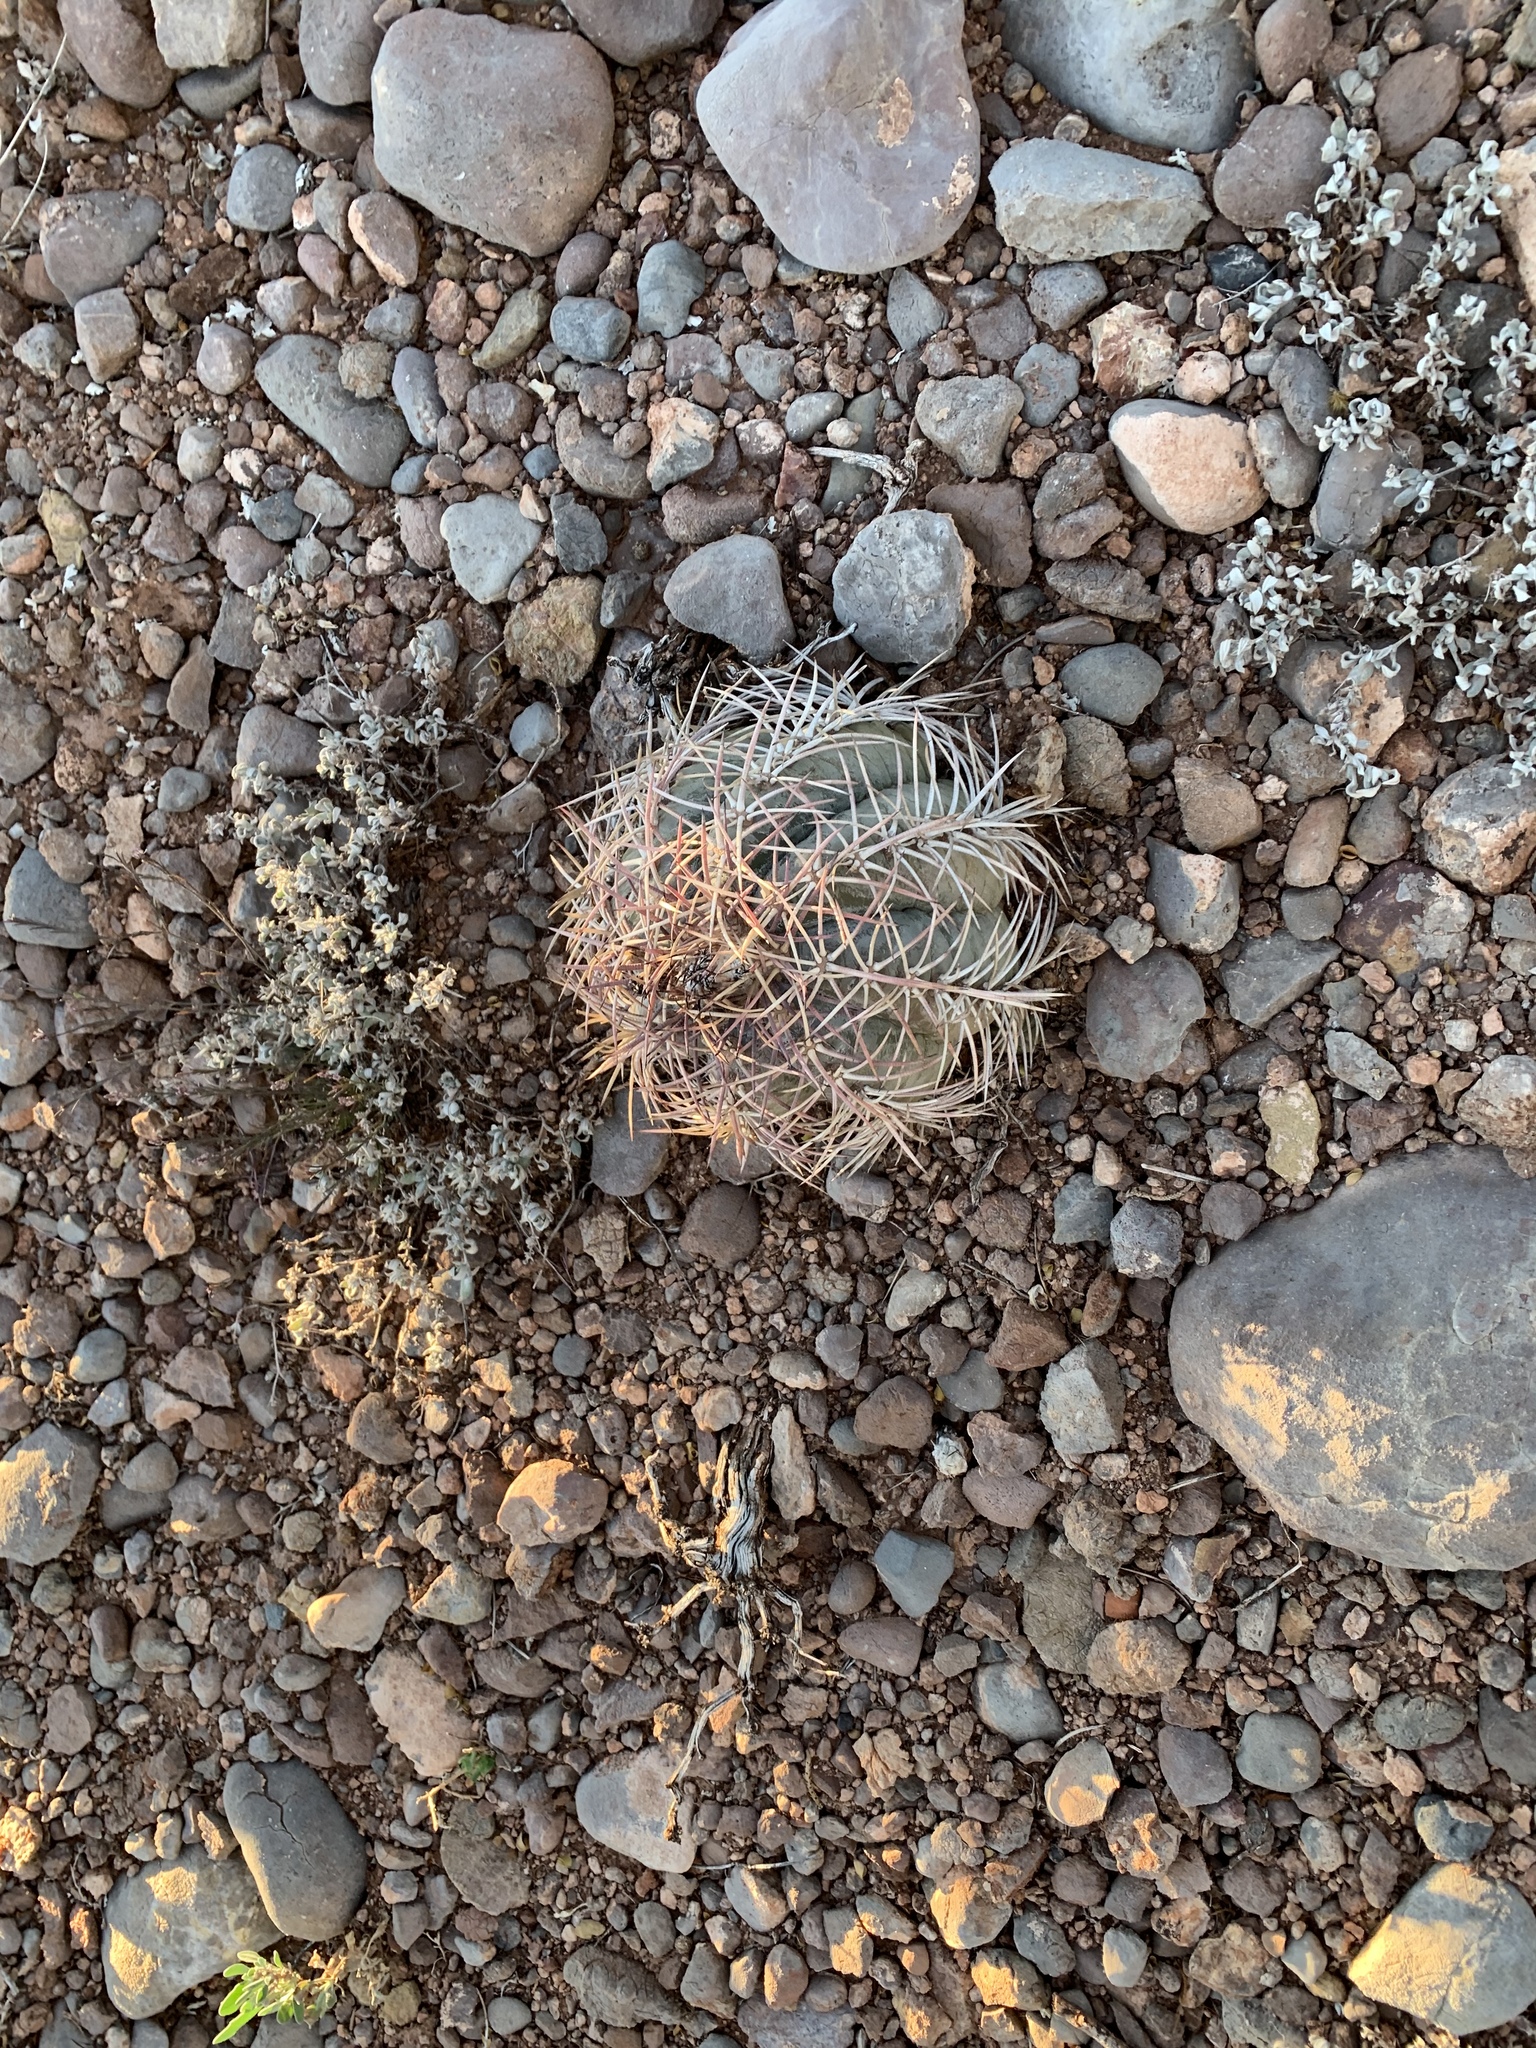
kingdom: Plantae
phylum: Tracheophyta
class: Magnoliopsida
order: Caryophyllales
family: Cactaceae
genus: Echinocactus
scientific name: Echinocactus horizonthalonius
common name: Devilshead
